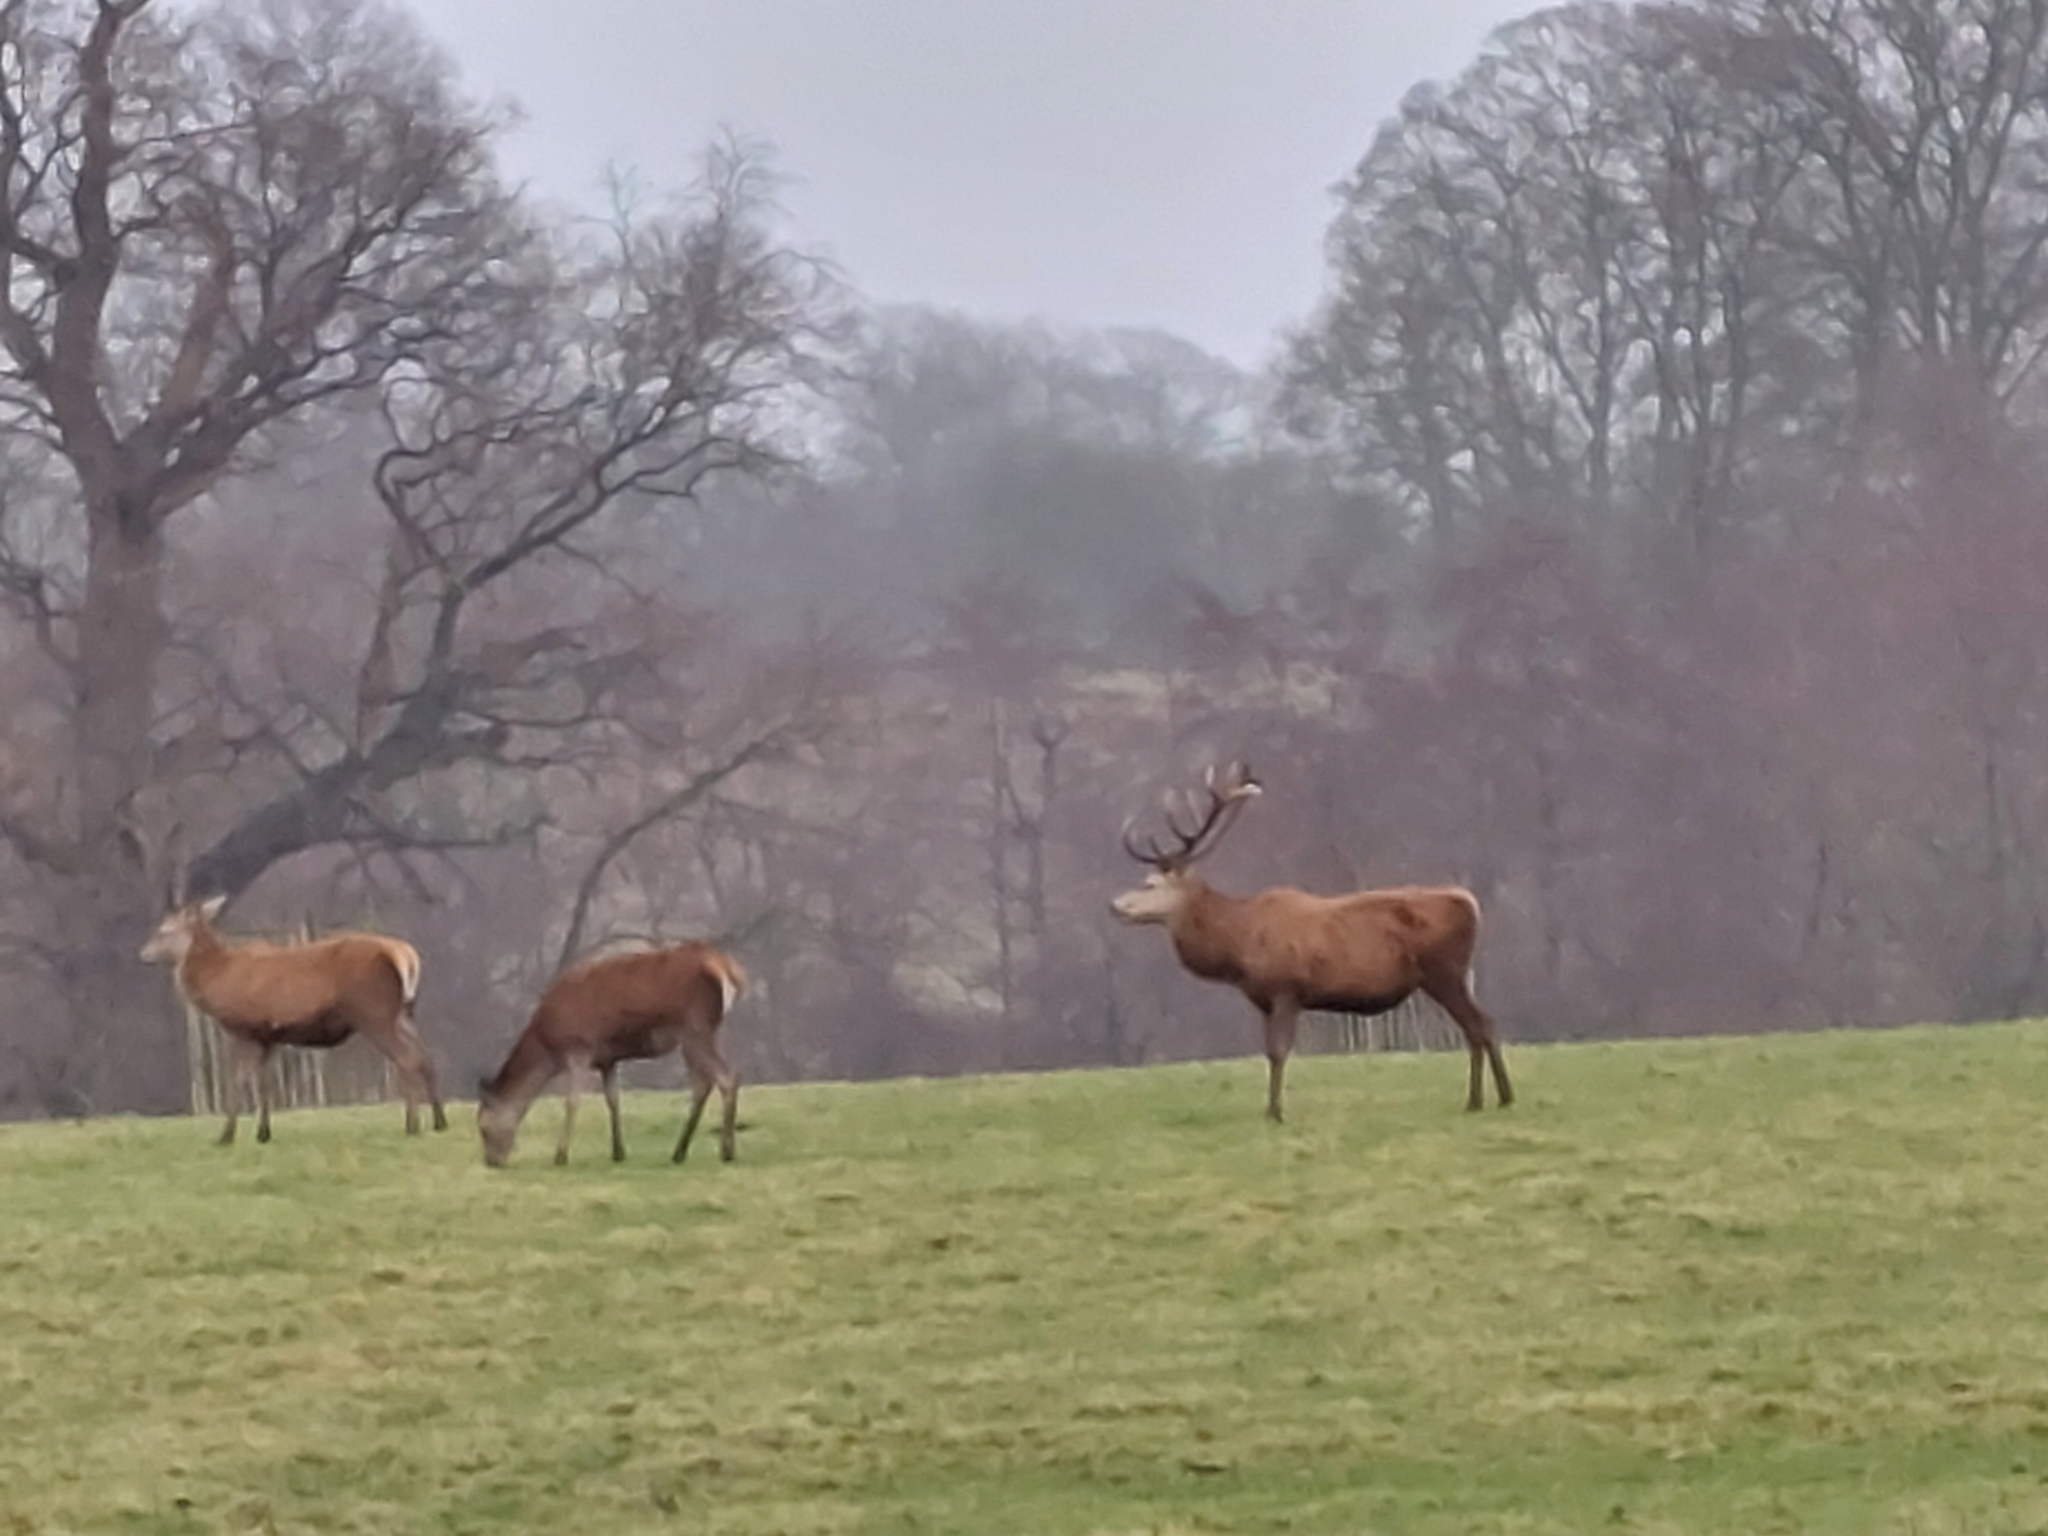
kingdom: Animalia
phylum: Chordata
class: Mammalia
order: Artiodactyla
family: Cervidae
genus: Cervus
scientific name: Cervus elaphus
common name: Red deer
